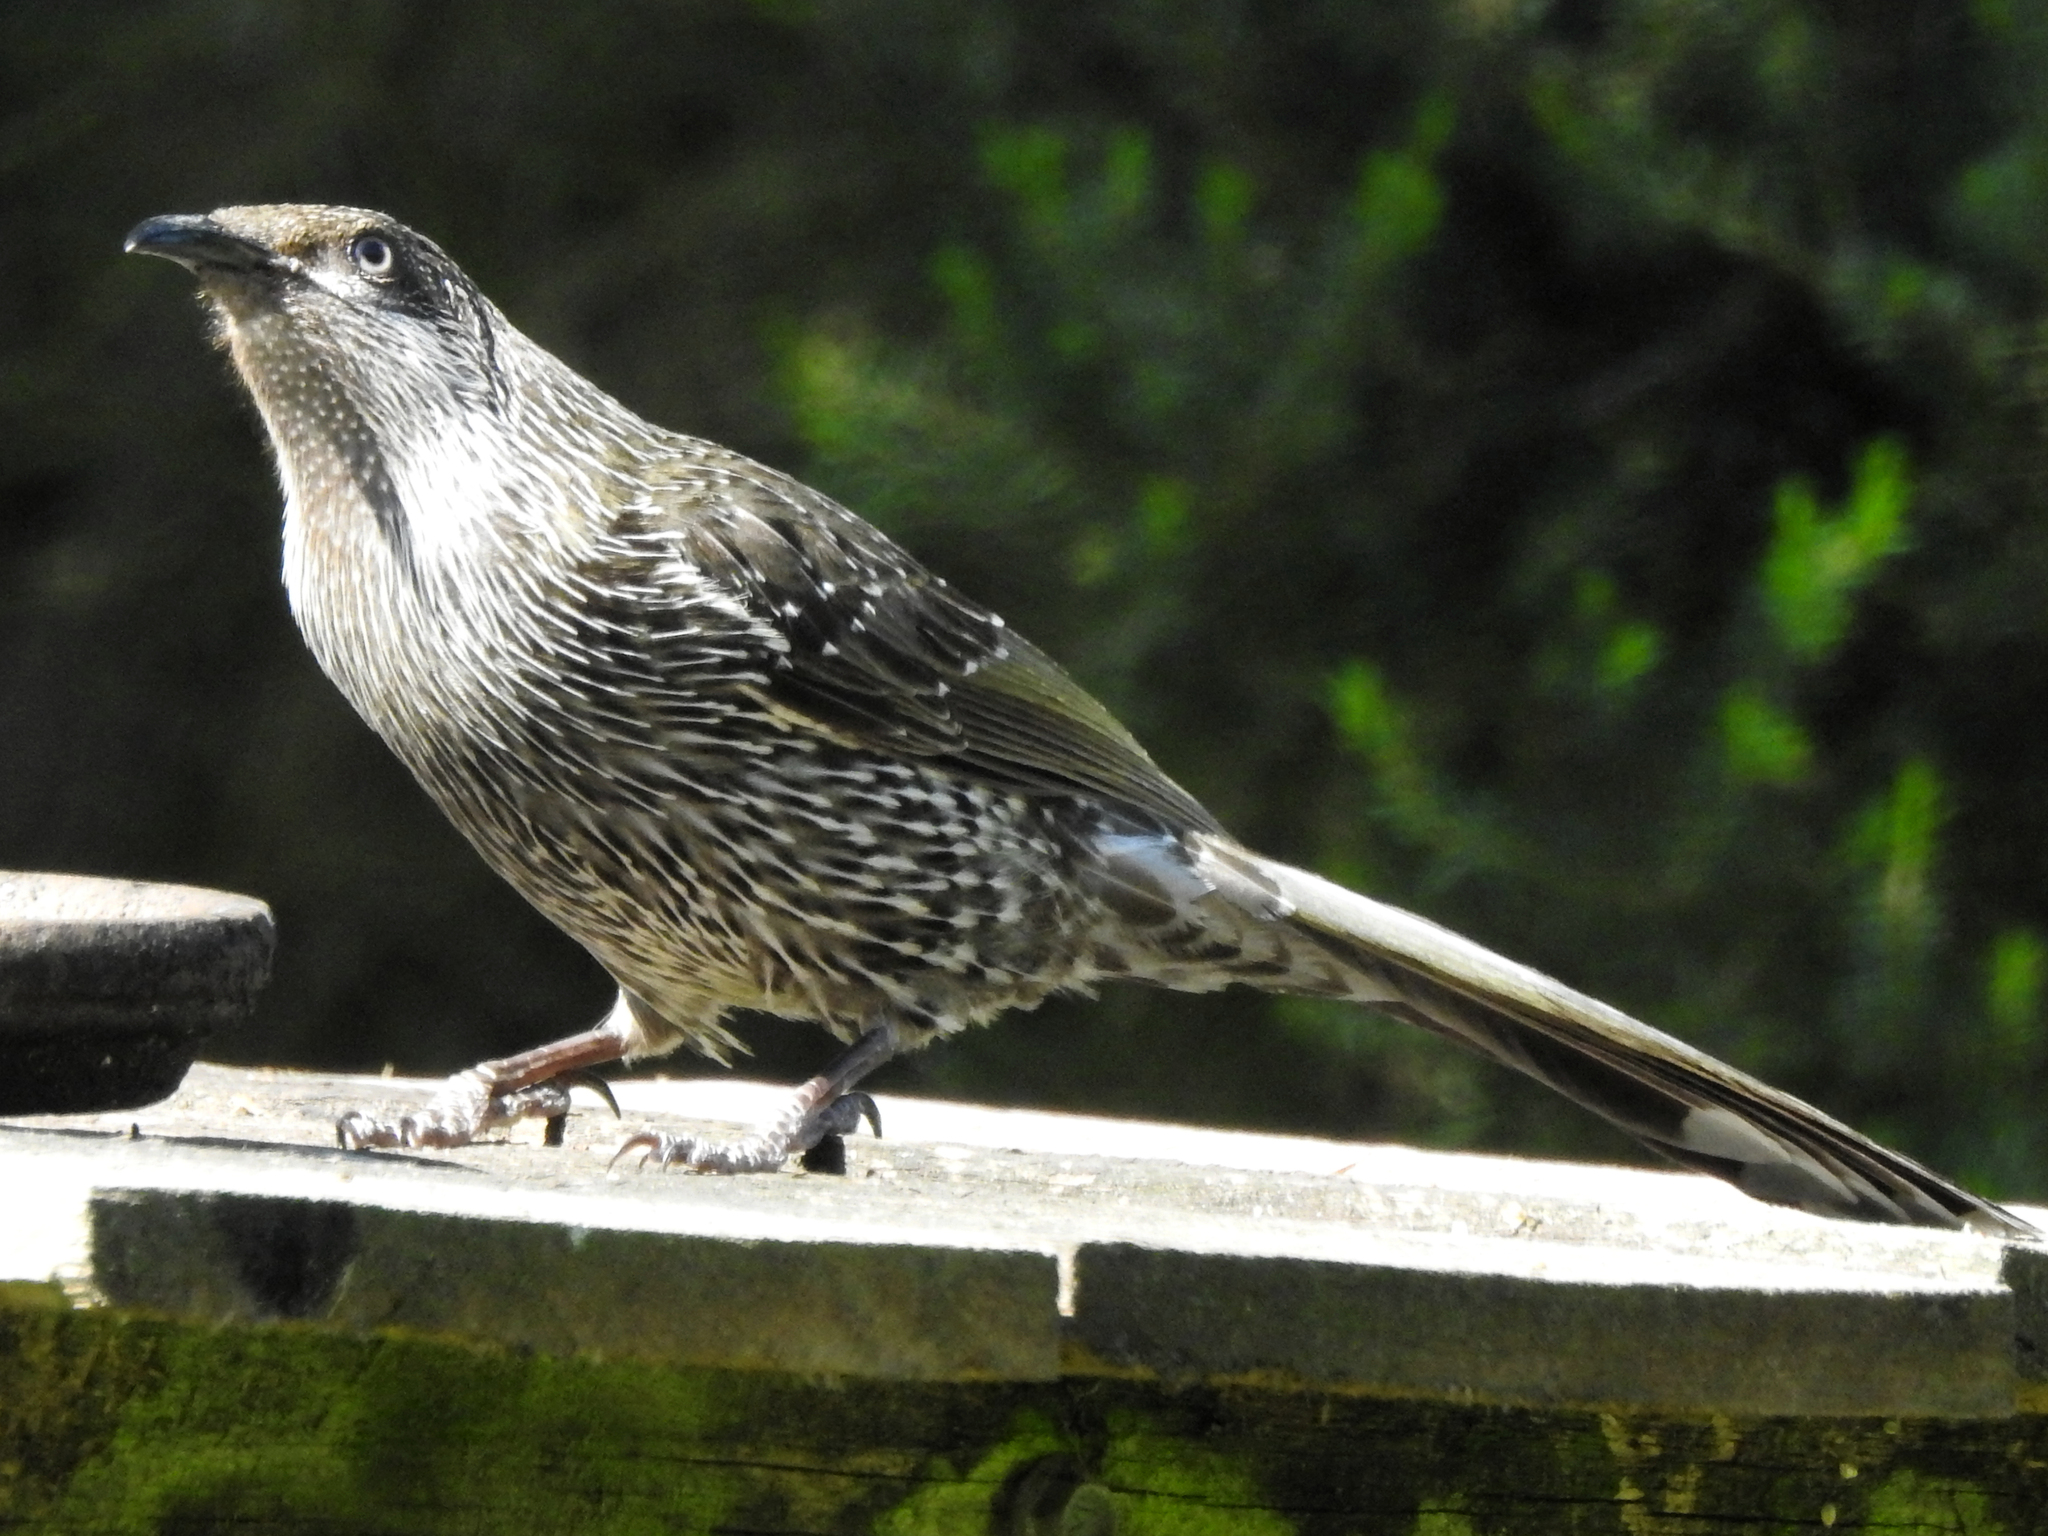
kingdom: Animalia
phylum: Chordata
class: Aves
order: Passeriformes
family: Meliphagidae
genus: Anthochaera
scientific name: Anthochaera chrysoptera
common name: Little wattlebird
